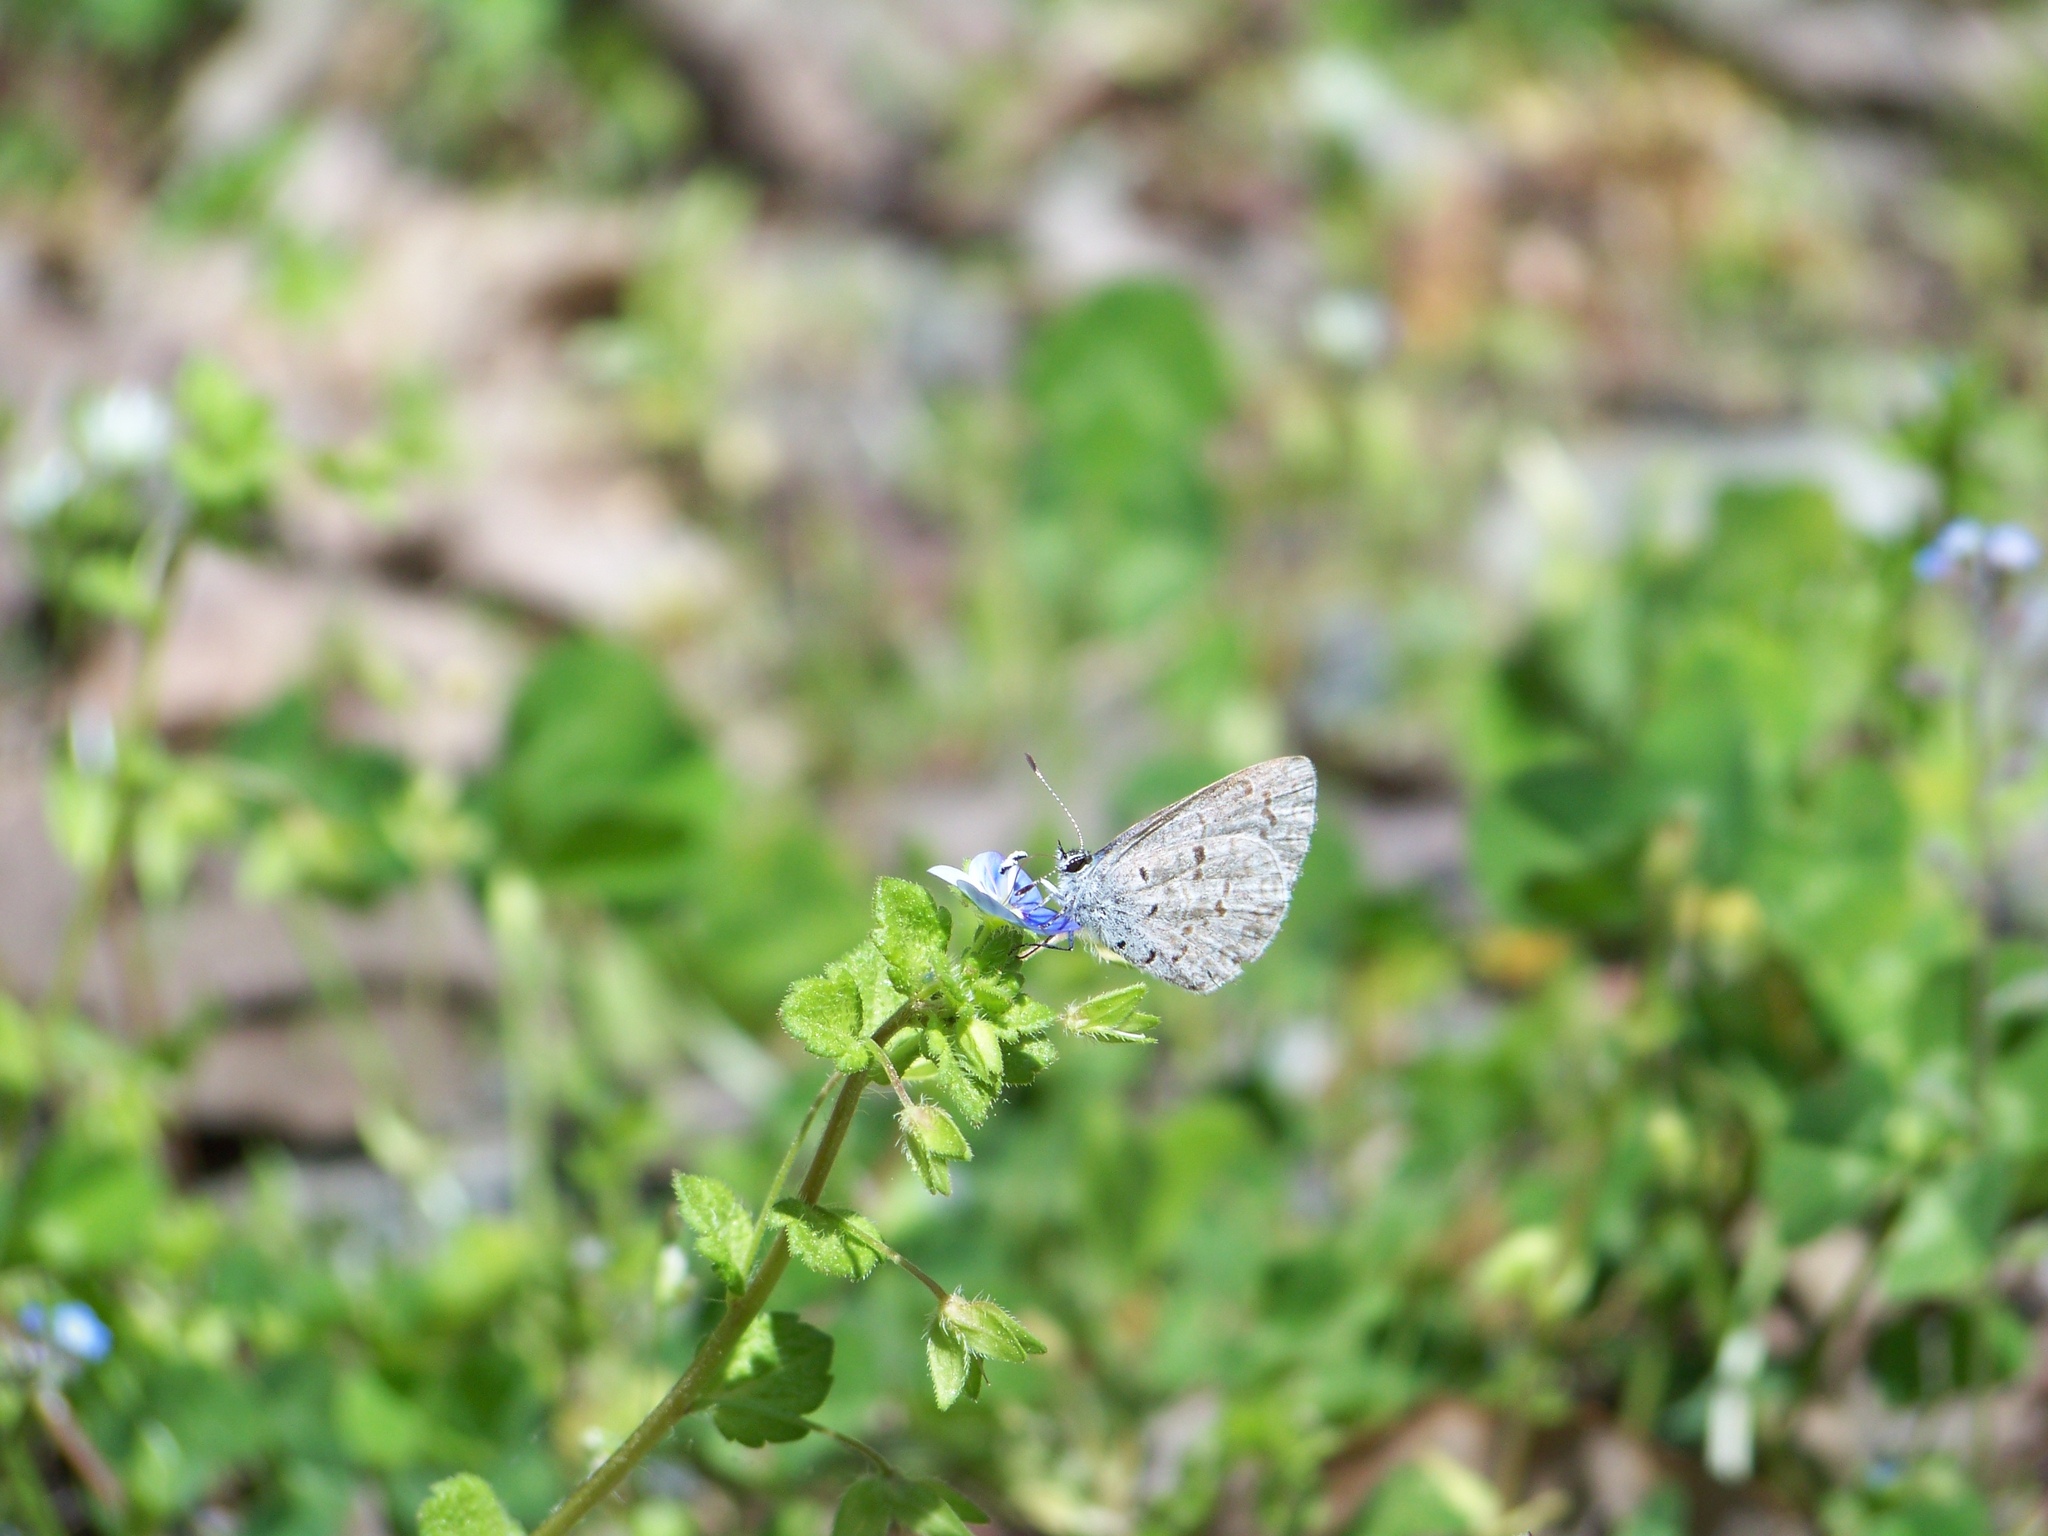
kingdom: Animalia
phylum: Arthropoda
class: Insecta
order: Lepidoptera
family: Lycaenidae
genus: Celastrina
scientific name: Celastrina
